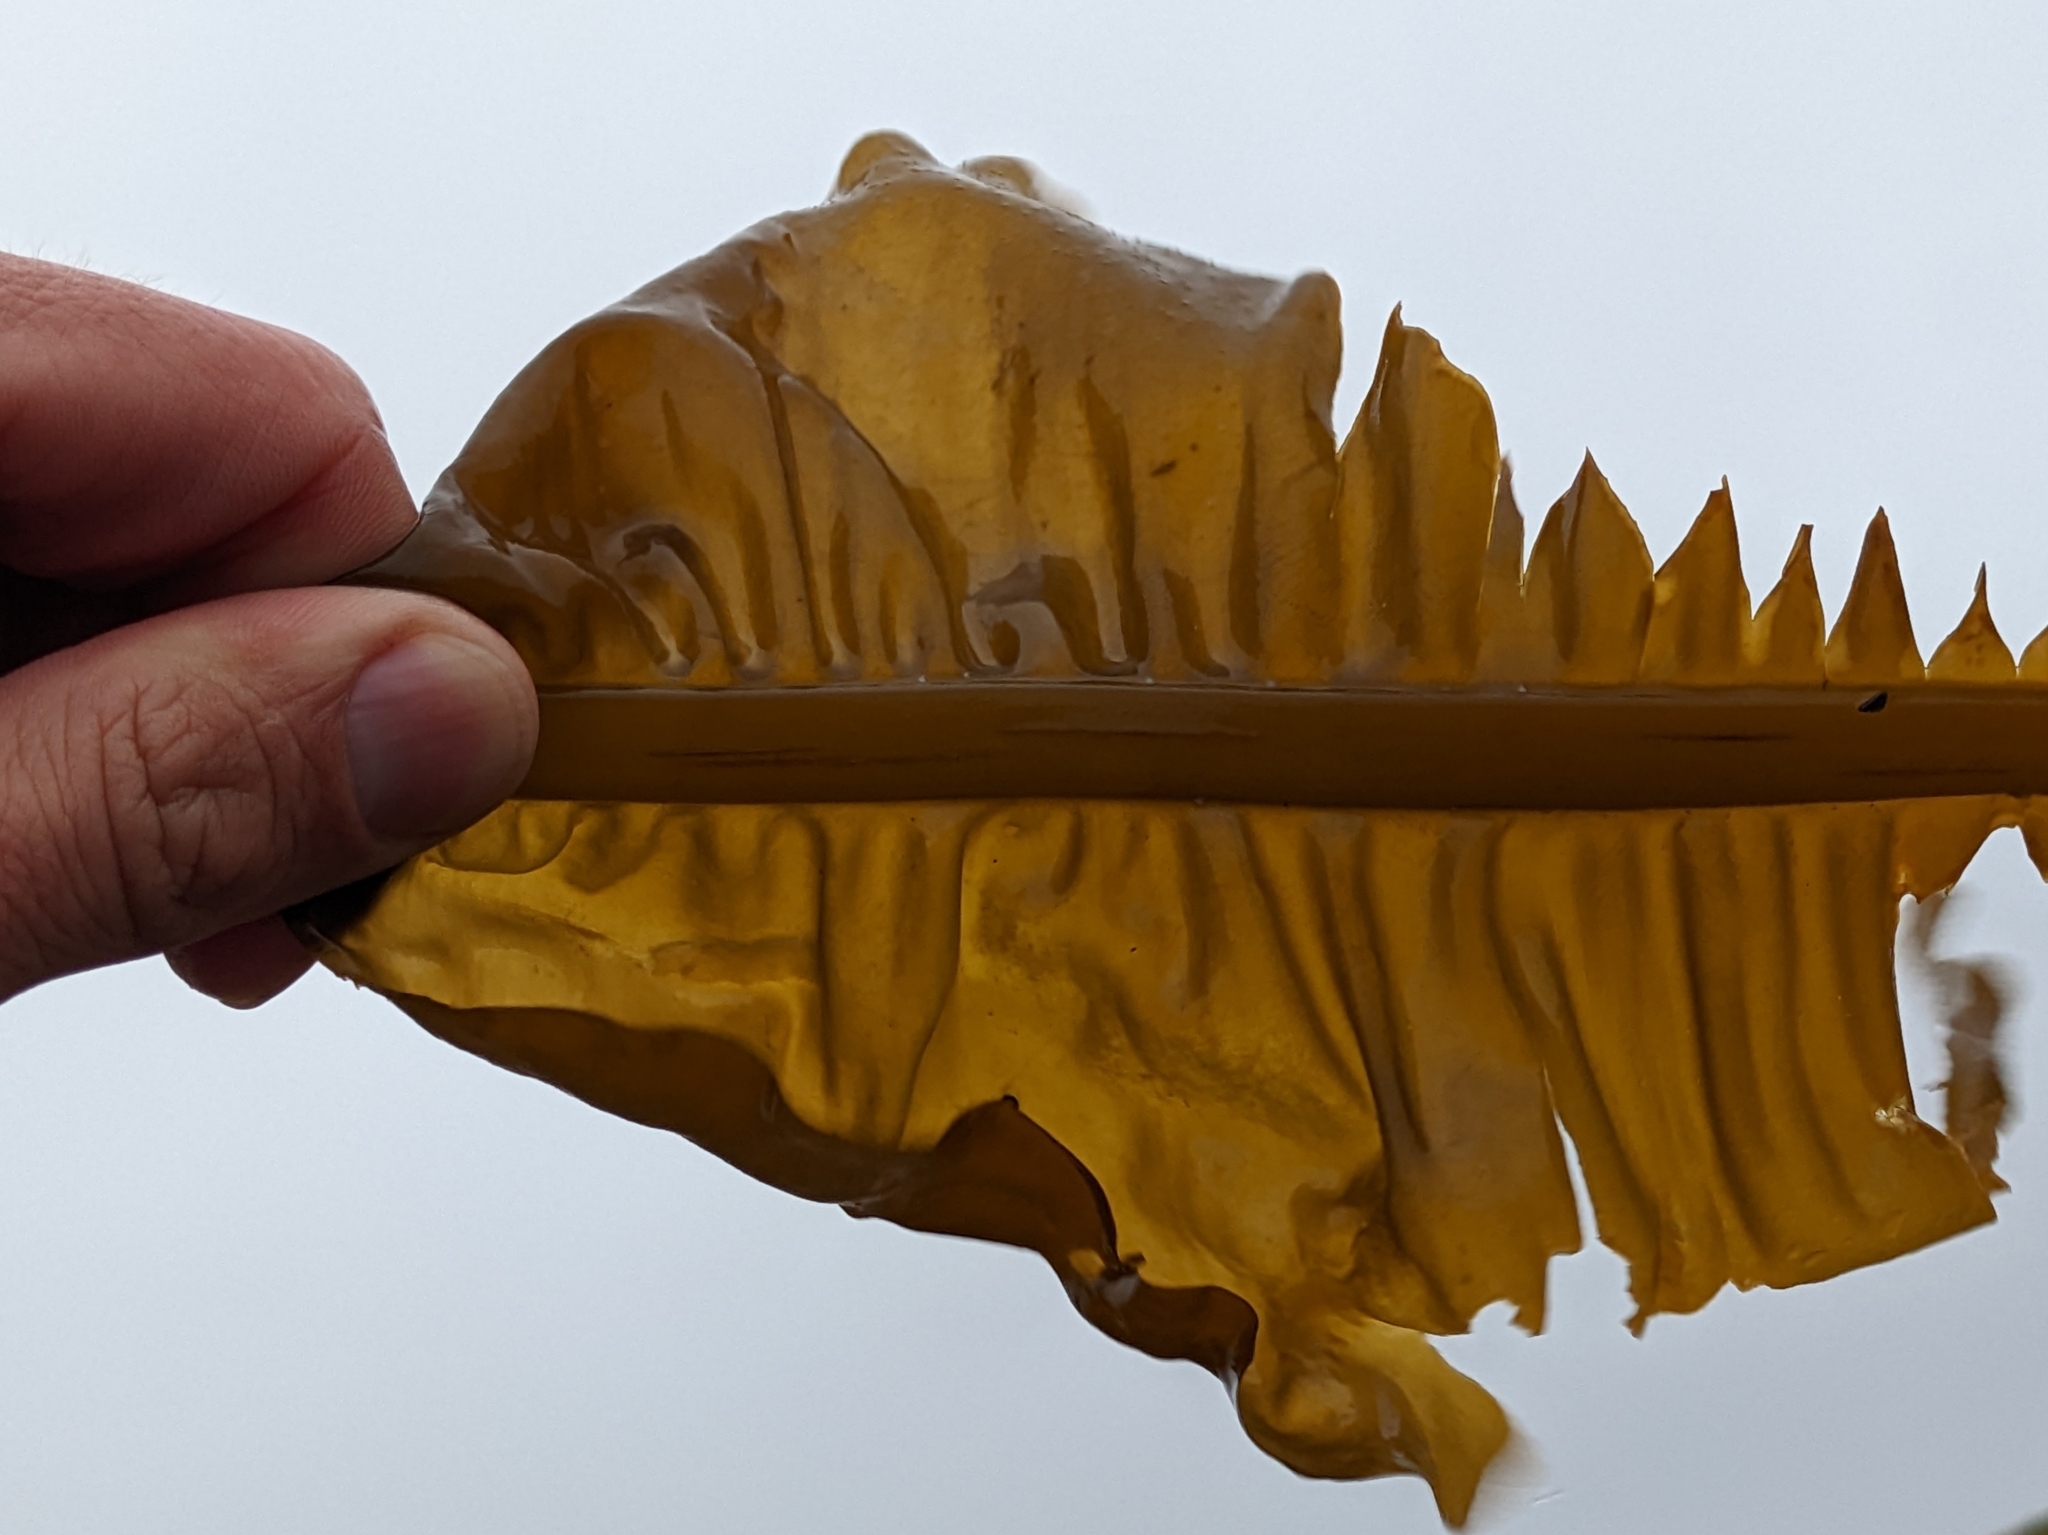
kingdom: Chromista
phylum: Ochrophyta
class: Phaeophyceae
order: Laminariales
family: Alariaceae
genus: Alaria
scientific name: Alaria esculenta
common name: Dabberlocks
